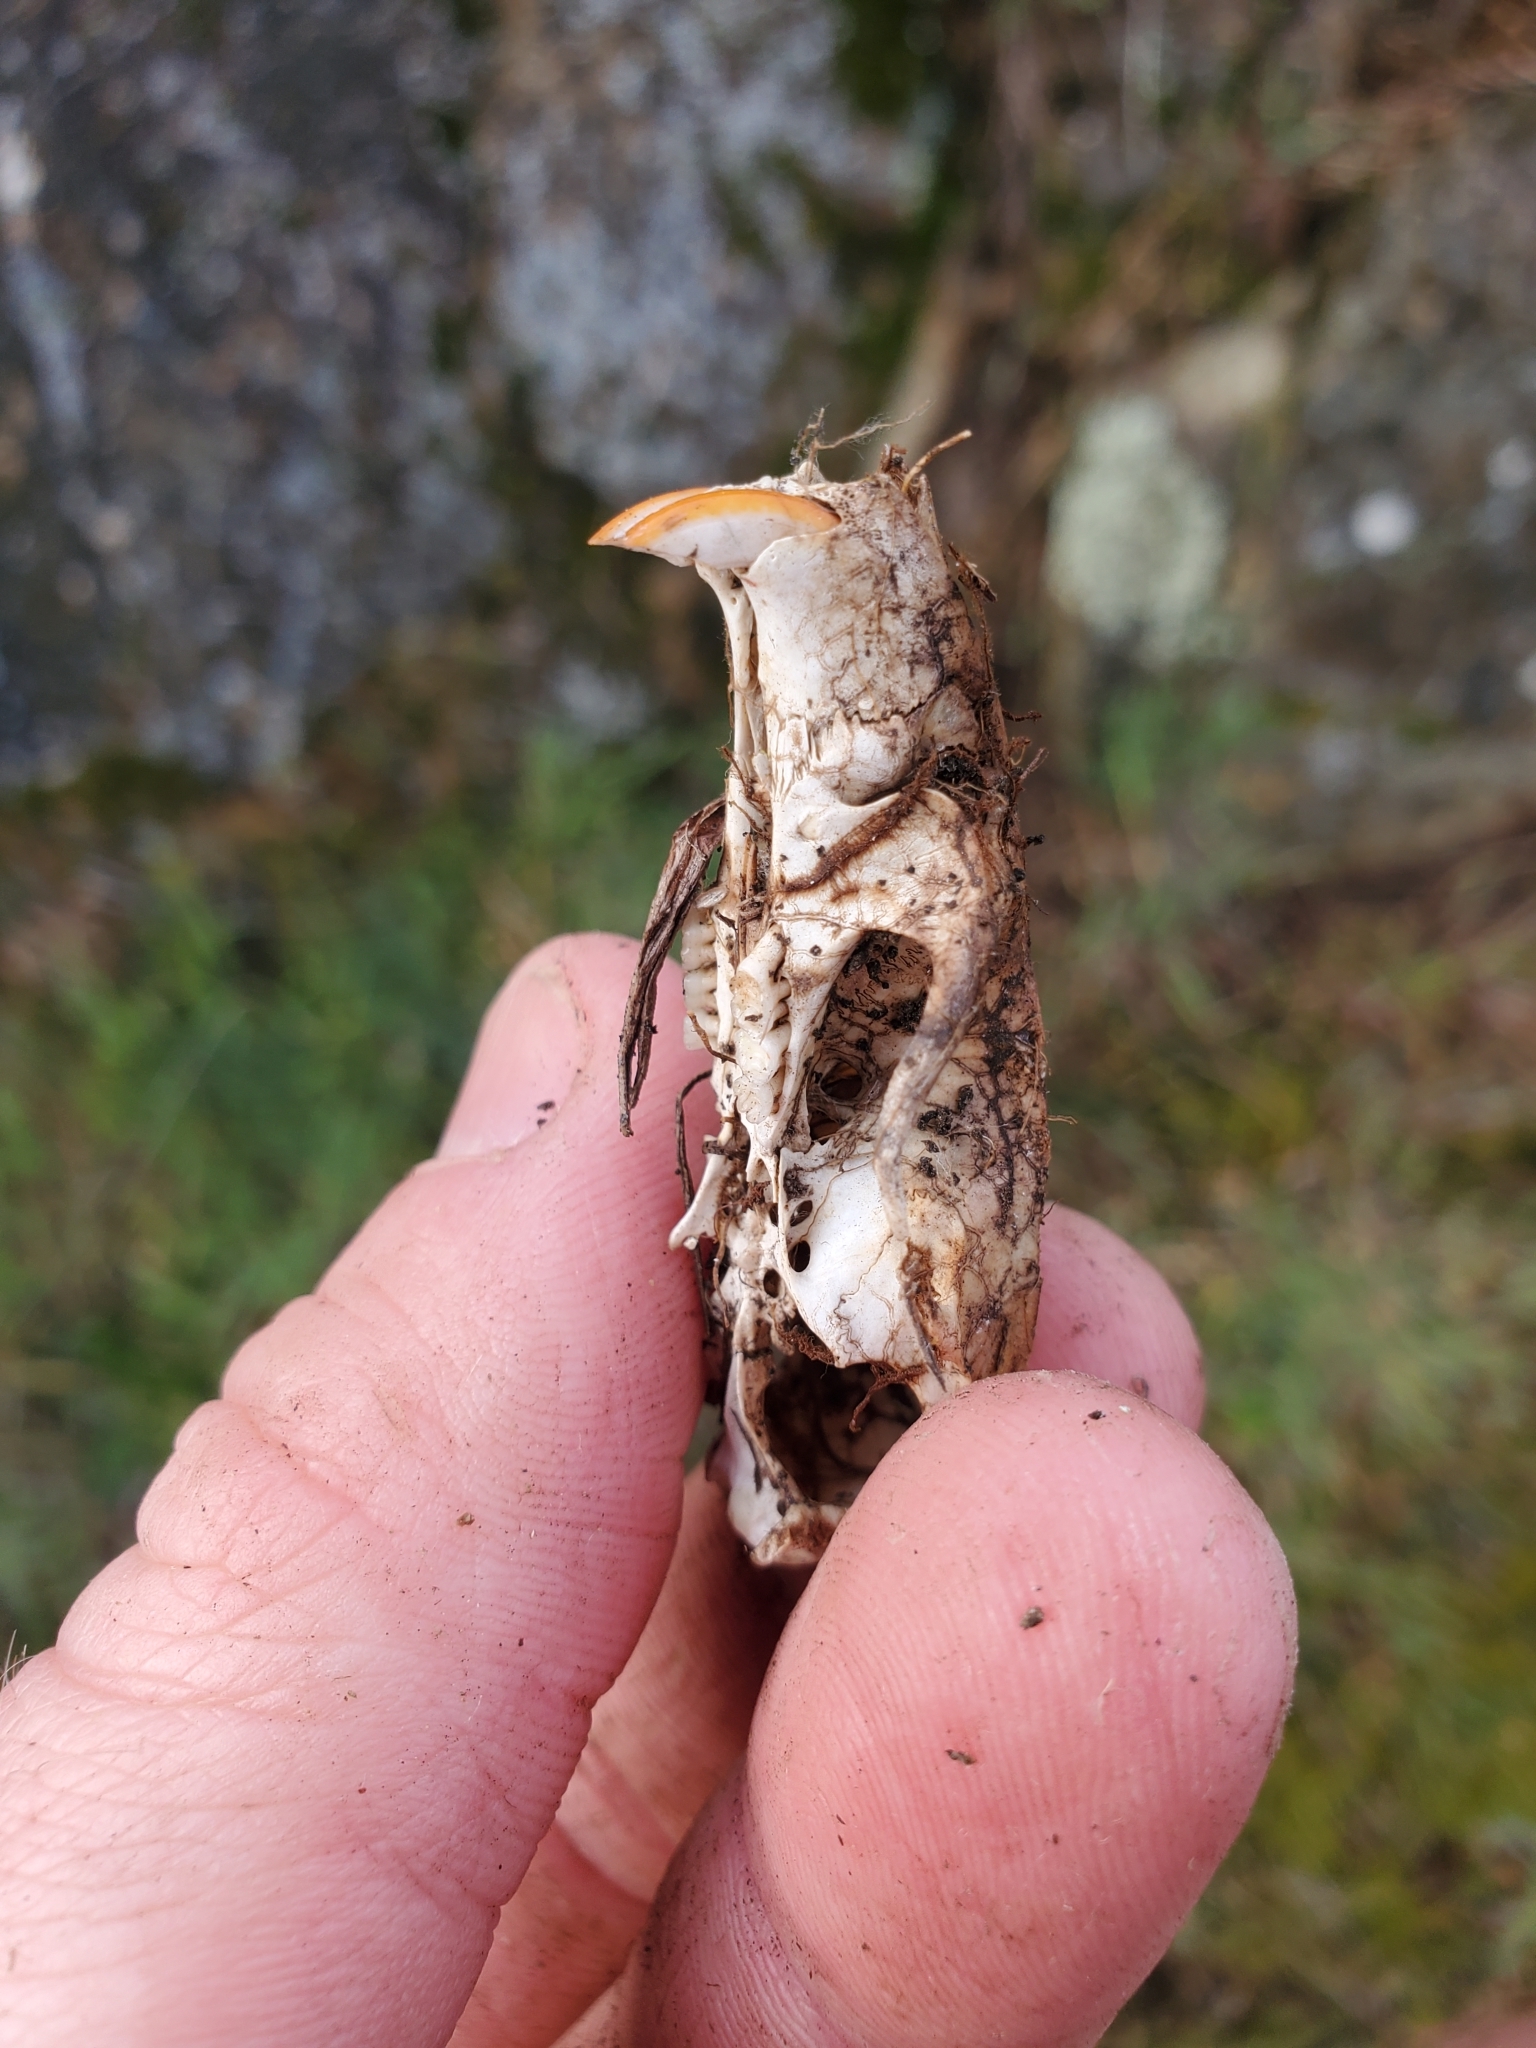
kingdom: Animalia
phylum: Chordata
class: Mammalia
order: Rodentia
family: Muridae
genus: Rattus
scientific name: Rattus rattus
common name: Black rat
